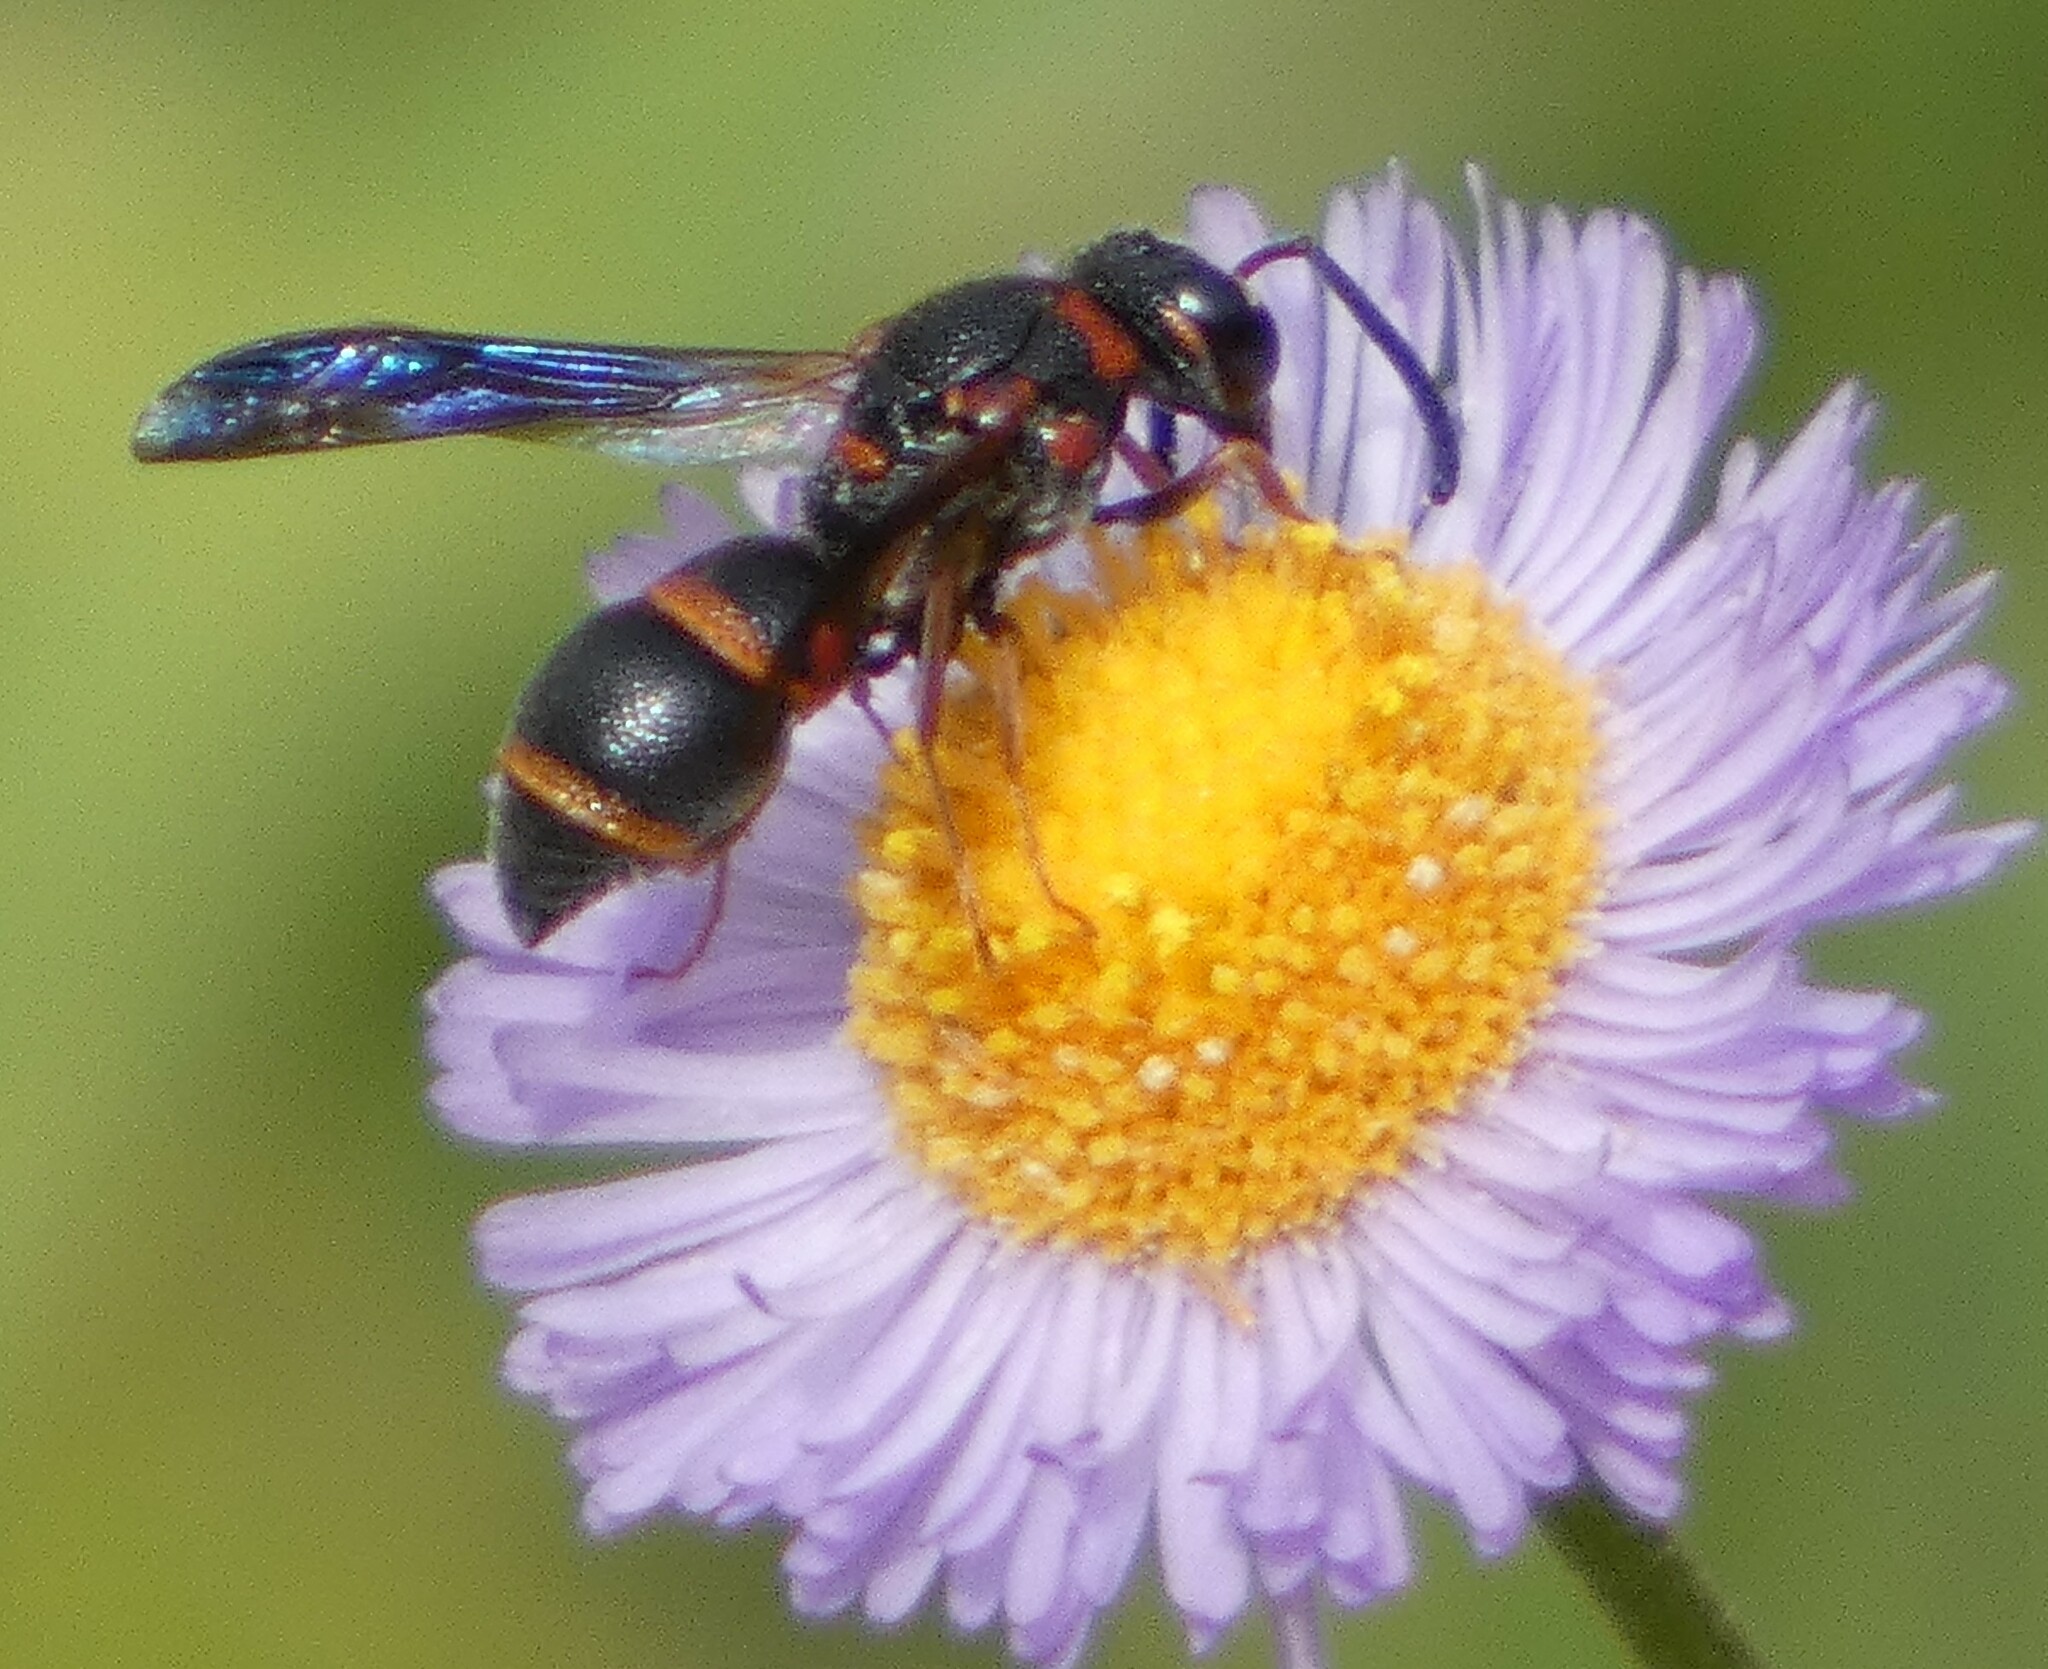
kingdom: Animalia
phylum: Arthropoda
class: Insecta
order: Hymenoptera
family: Eumenidae
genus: Parancistrocerus
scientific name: Parancistrocerus fulvipes
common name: Potter wasp
